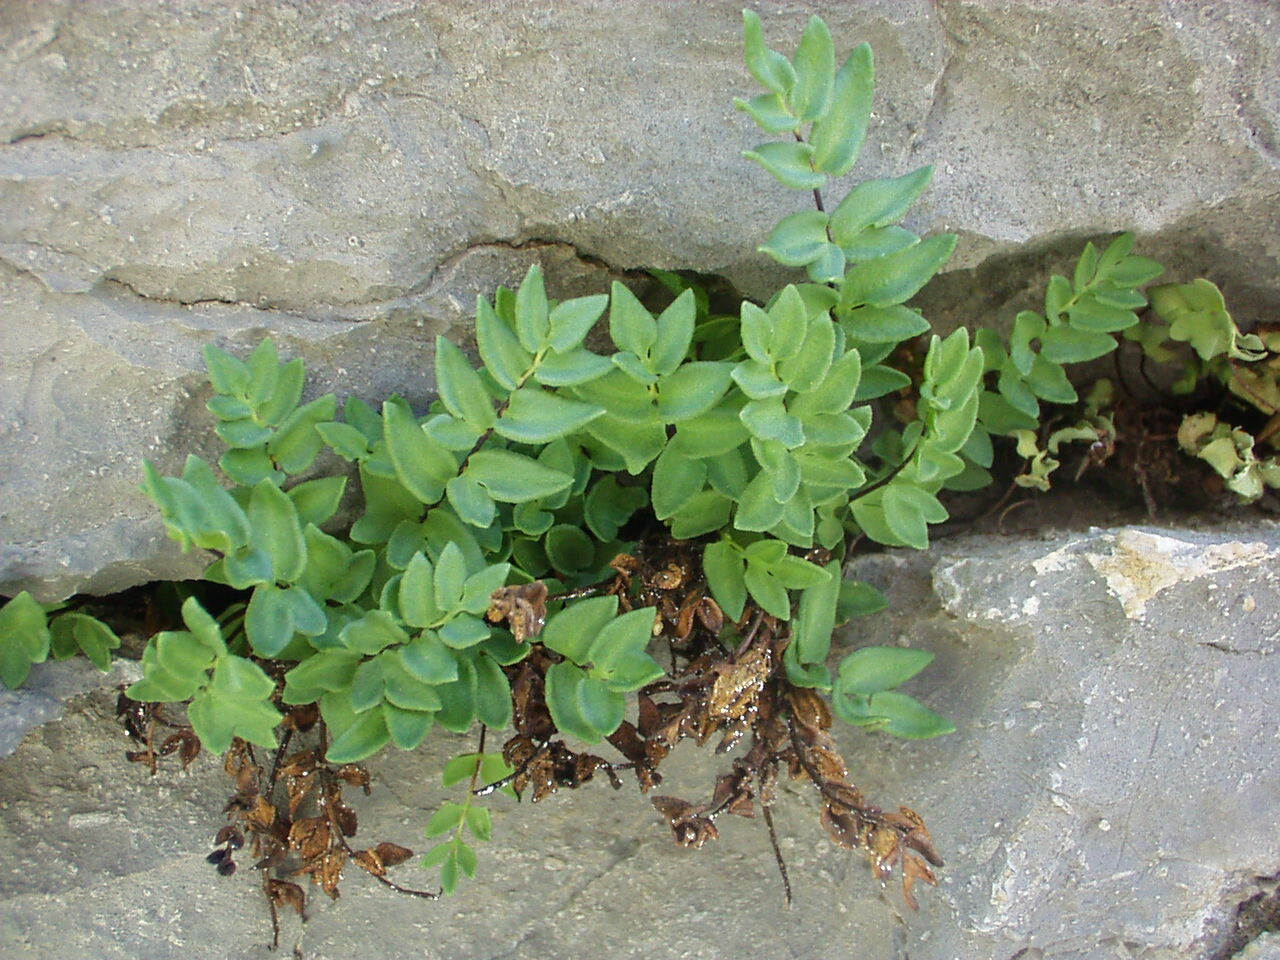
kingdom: Plantae
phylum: Tracheophyta
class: Polypodiopsida
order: Polypodiales
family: Pteridaceae
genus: Pellaea
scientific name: Pellaea breweri
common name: Brewer's cliffbrake
